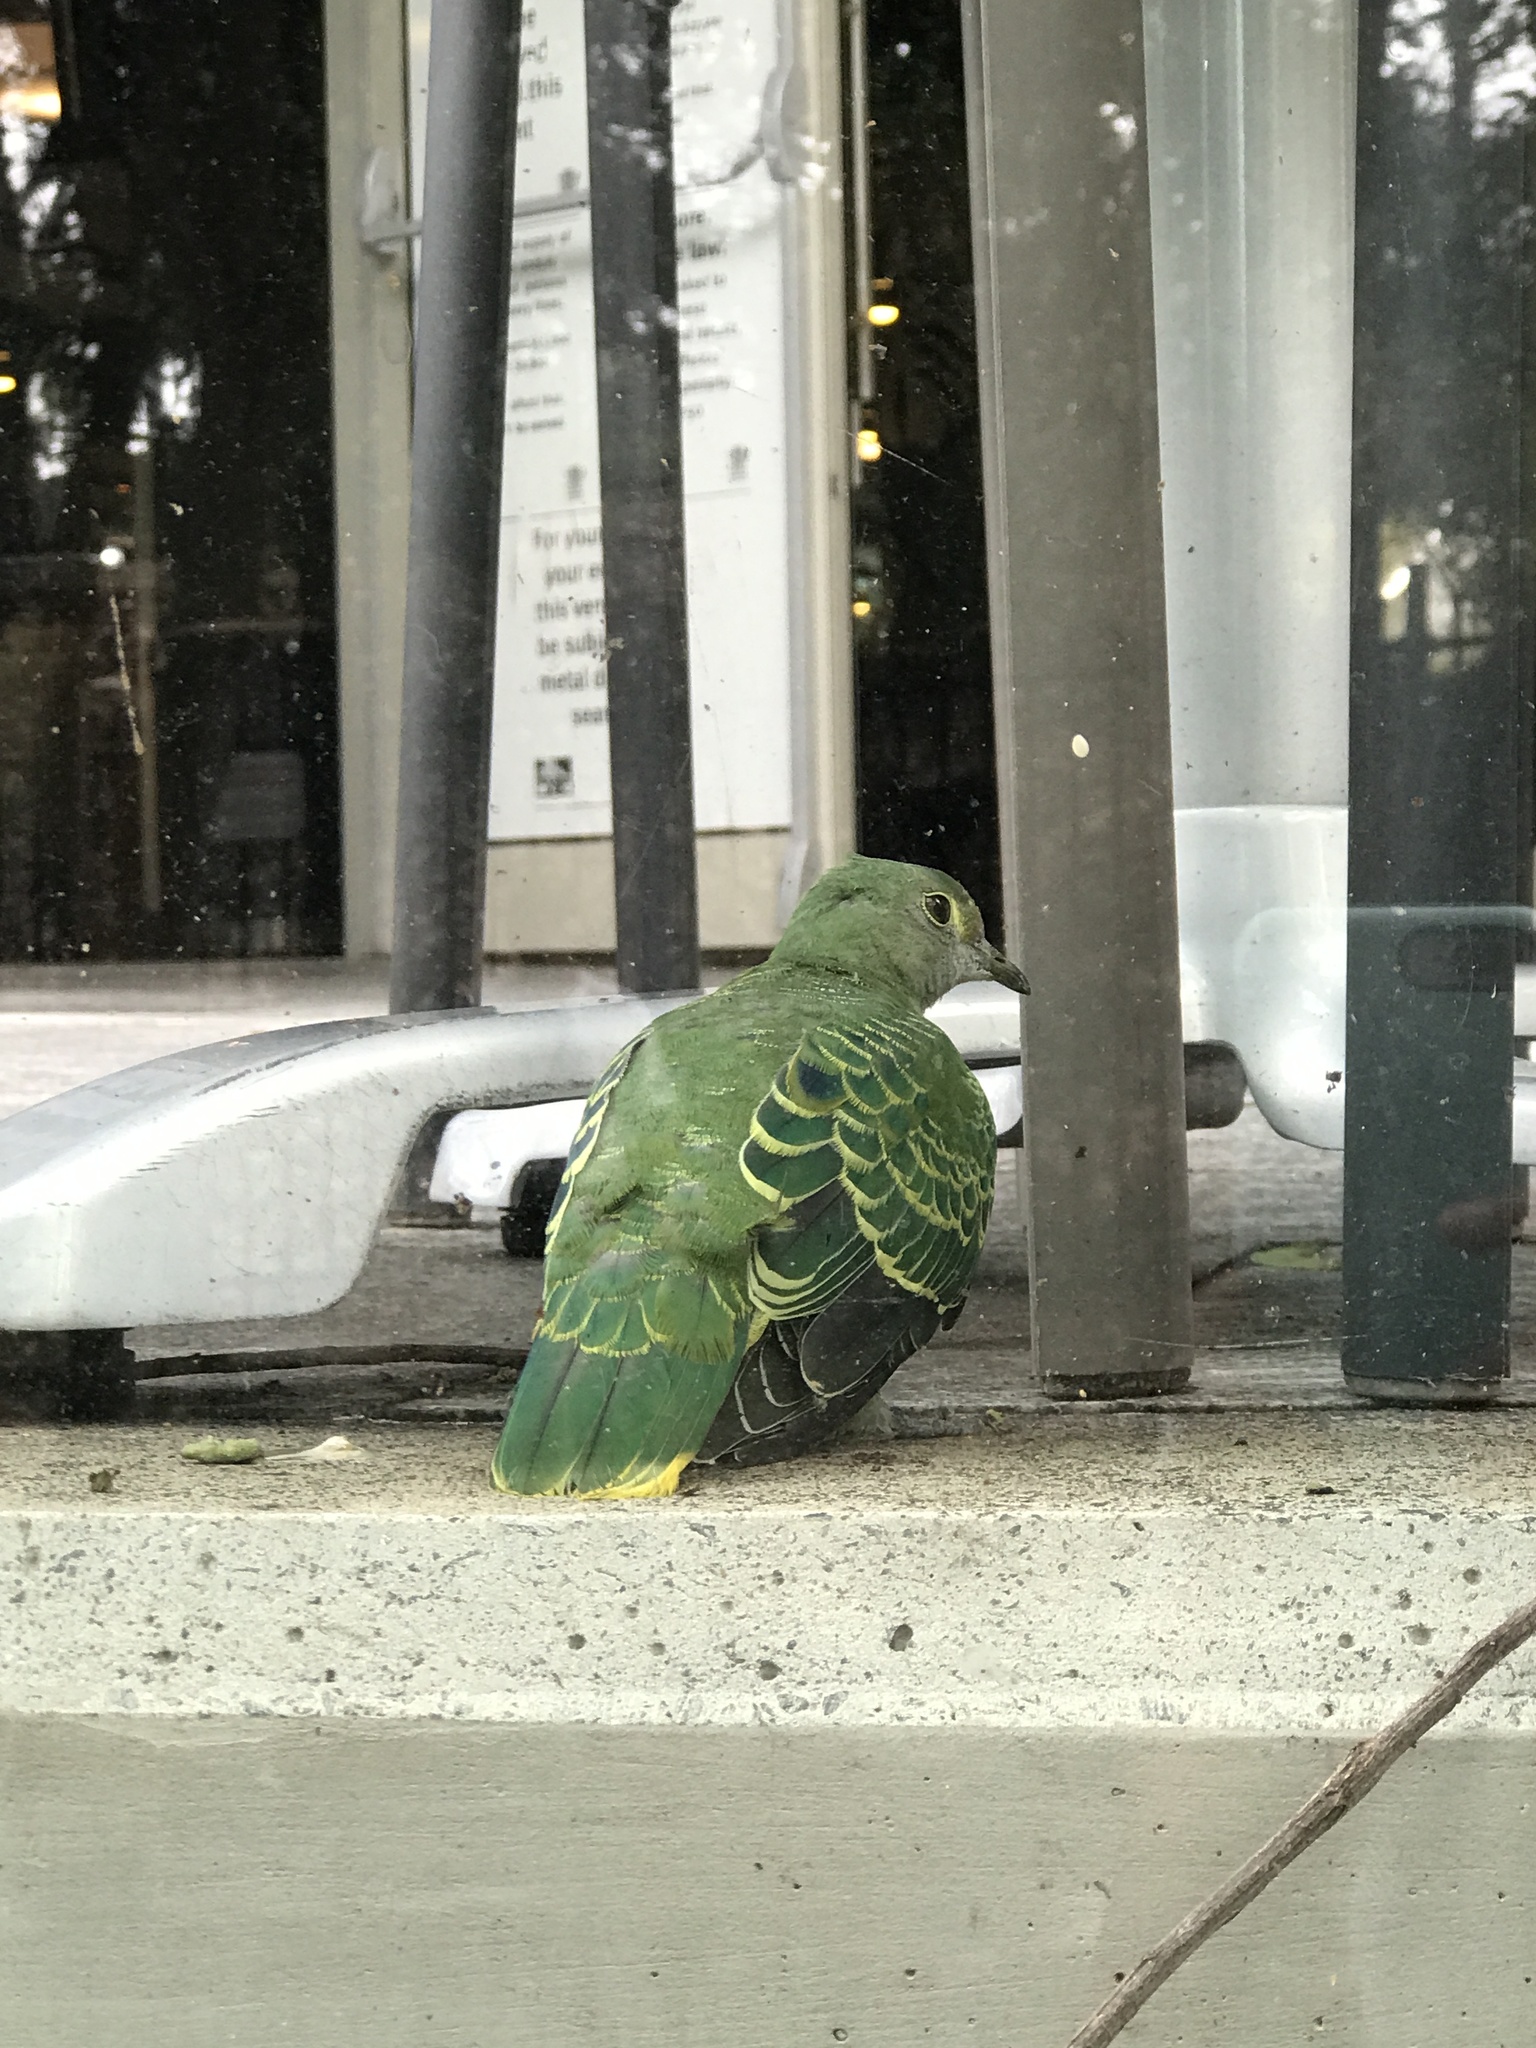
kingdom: Animalia
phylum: Chordata
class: Aves
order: Columbiformes
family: Columbidae
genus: Ptilinopus
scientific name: Ptilinopus regina
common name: Rose-crowned fruit dove
